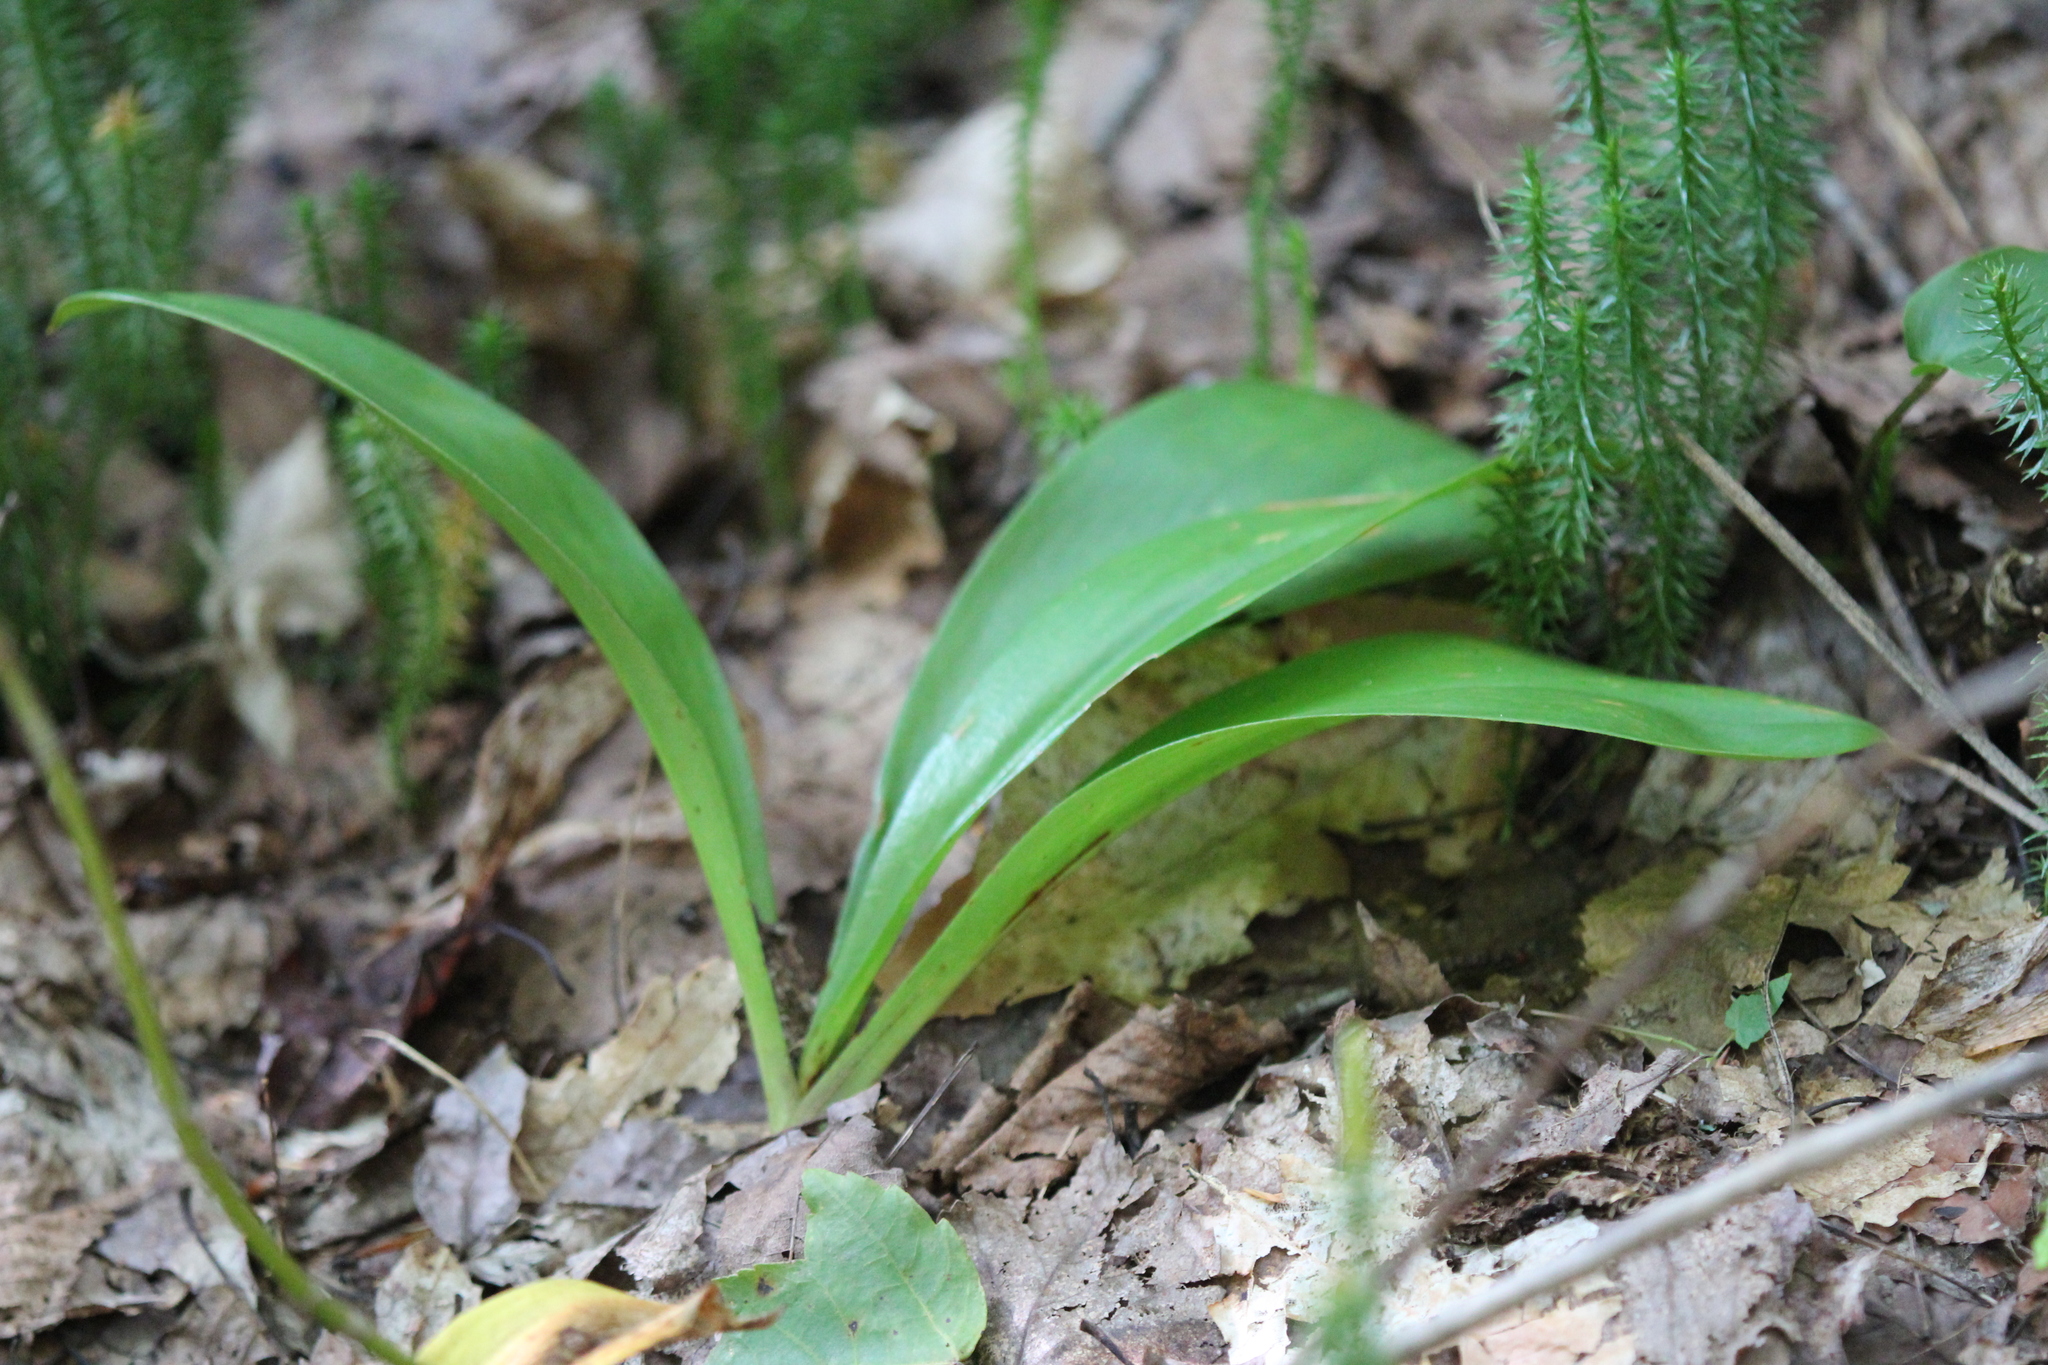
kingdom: Plantae
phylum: Tracheophyta
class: Liliopsida
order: Liliales
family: Liliaceae
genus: Clintonia
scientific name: Clintonia borealis
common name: Yellow clintonia
